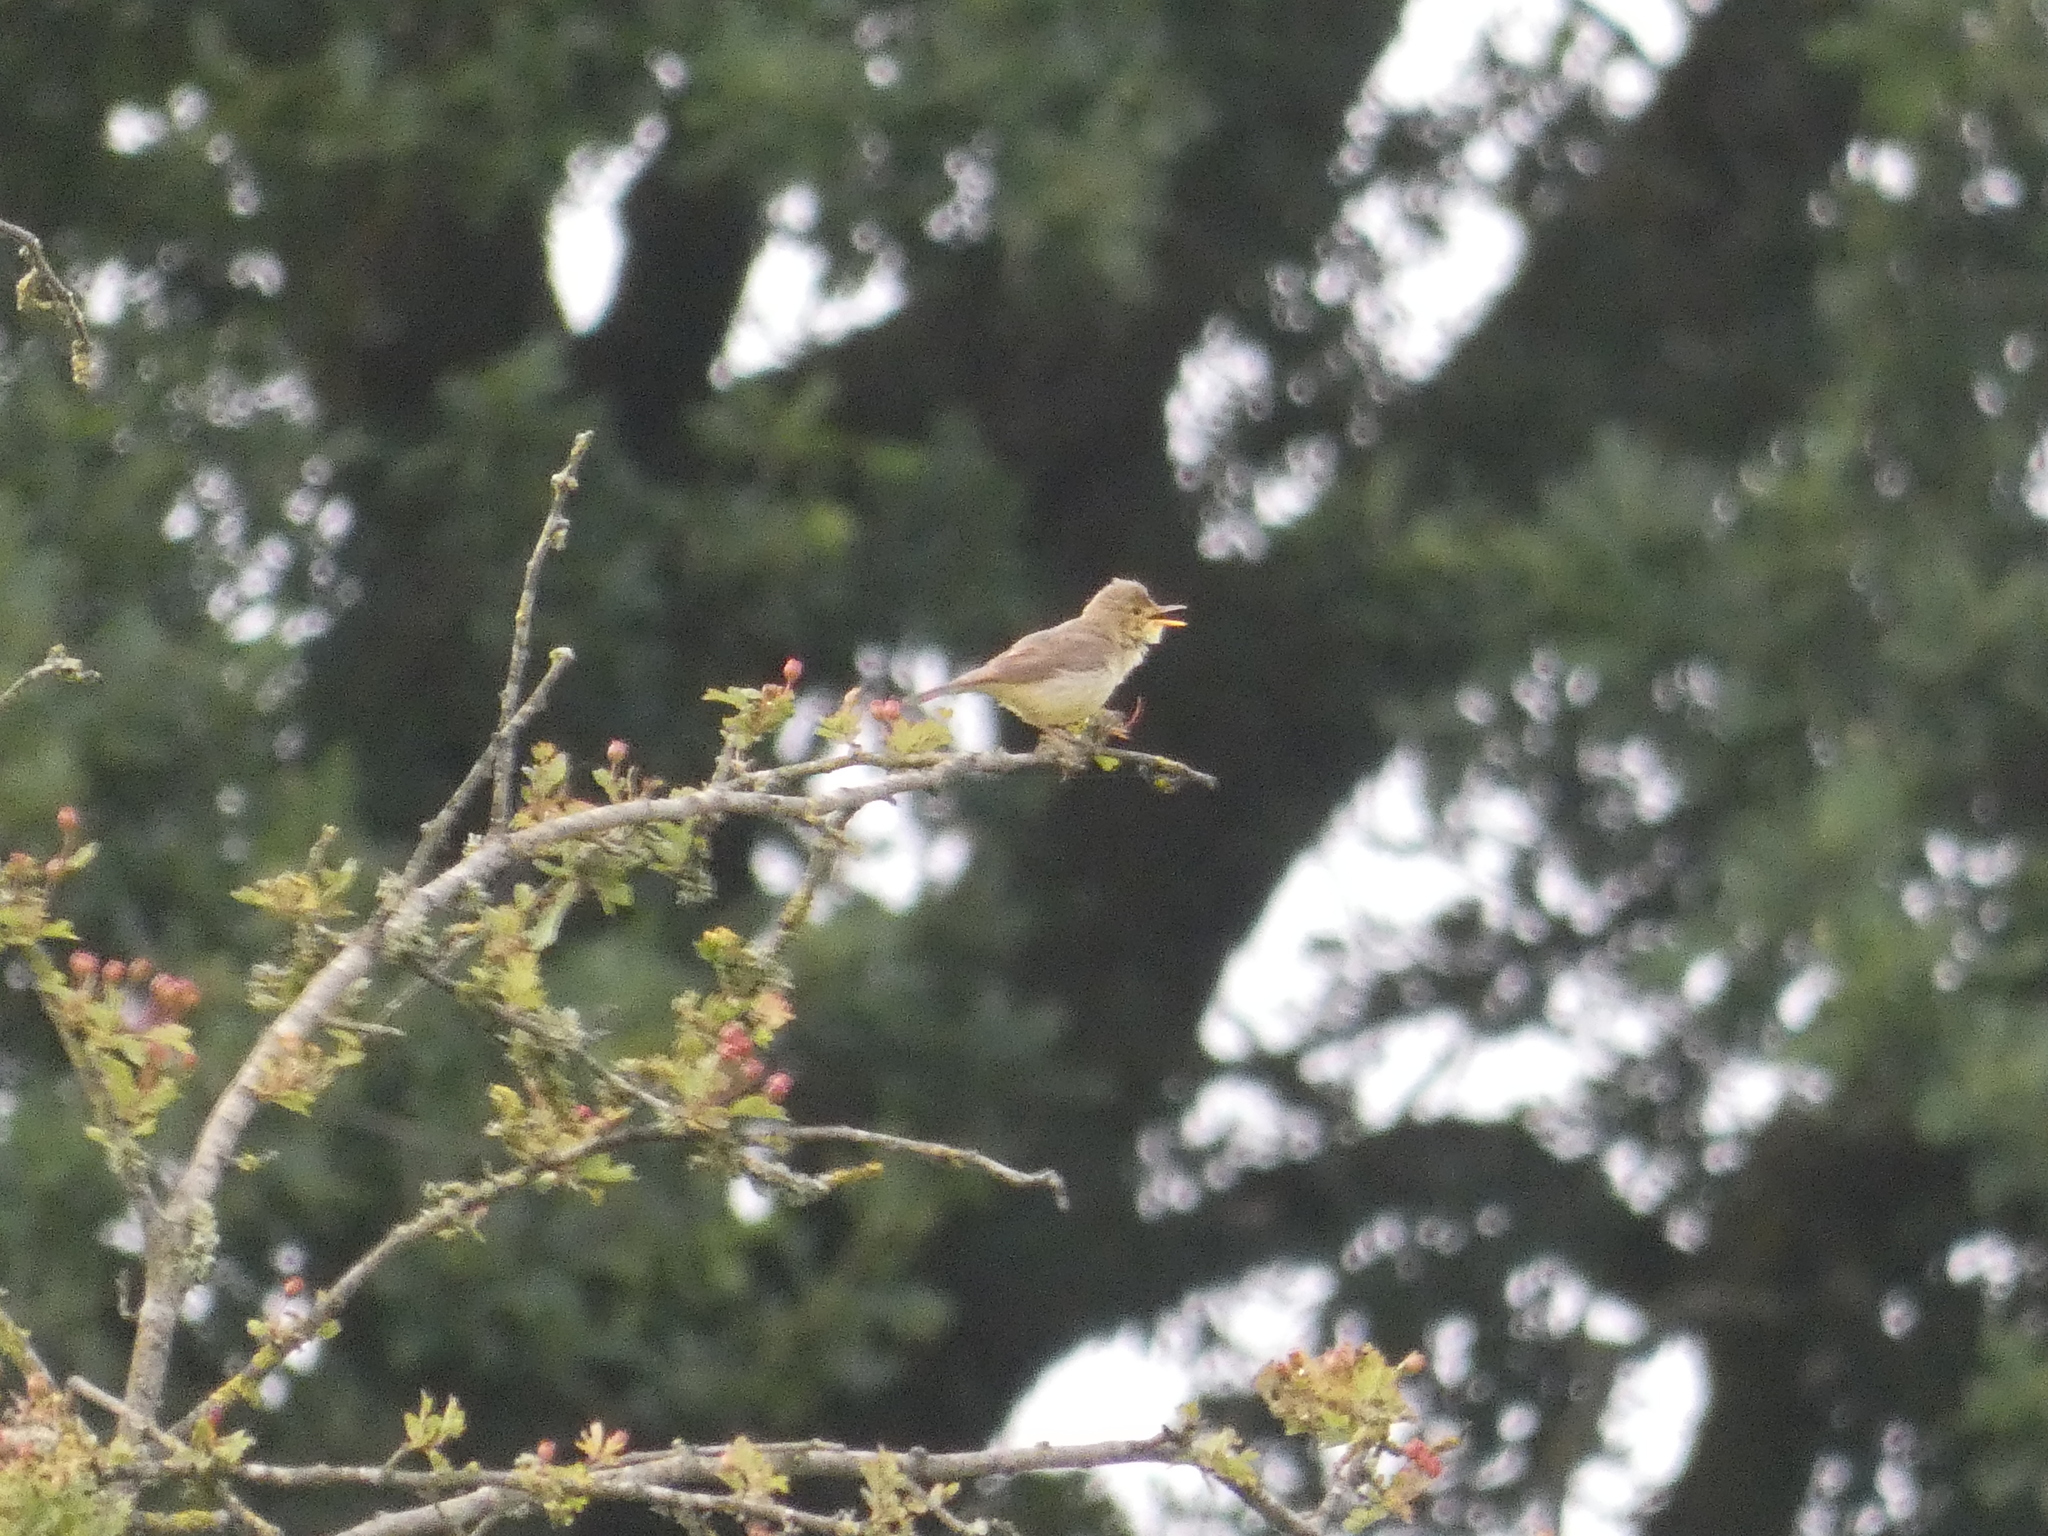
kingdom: Animalia
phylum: Chordata
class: Aves
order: Passeriformes
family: Acrocephalidae
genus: Hippolais
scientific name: Hippolais polyglotta
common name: Melodious warbler
